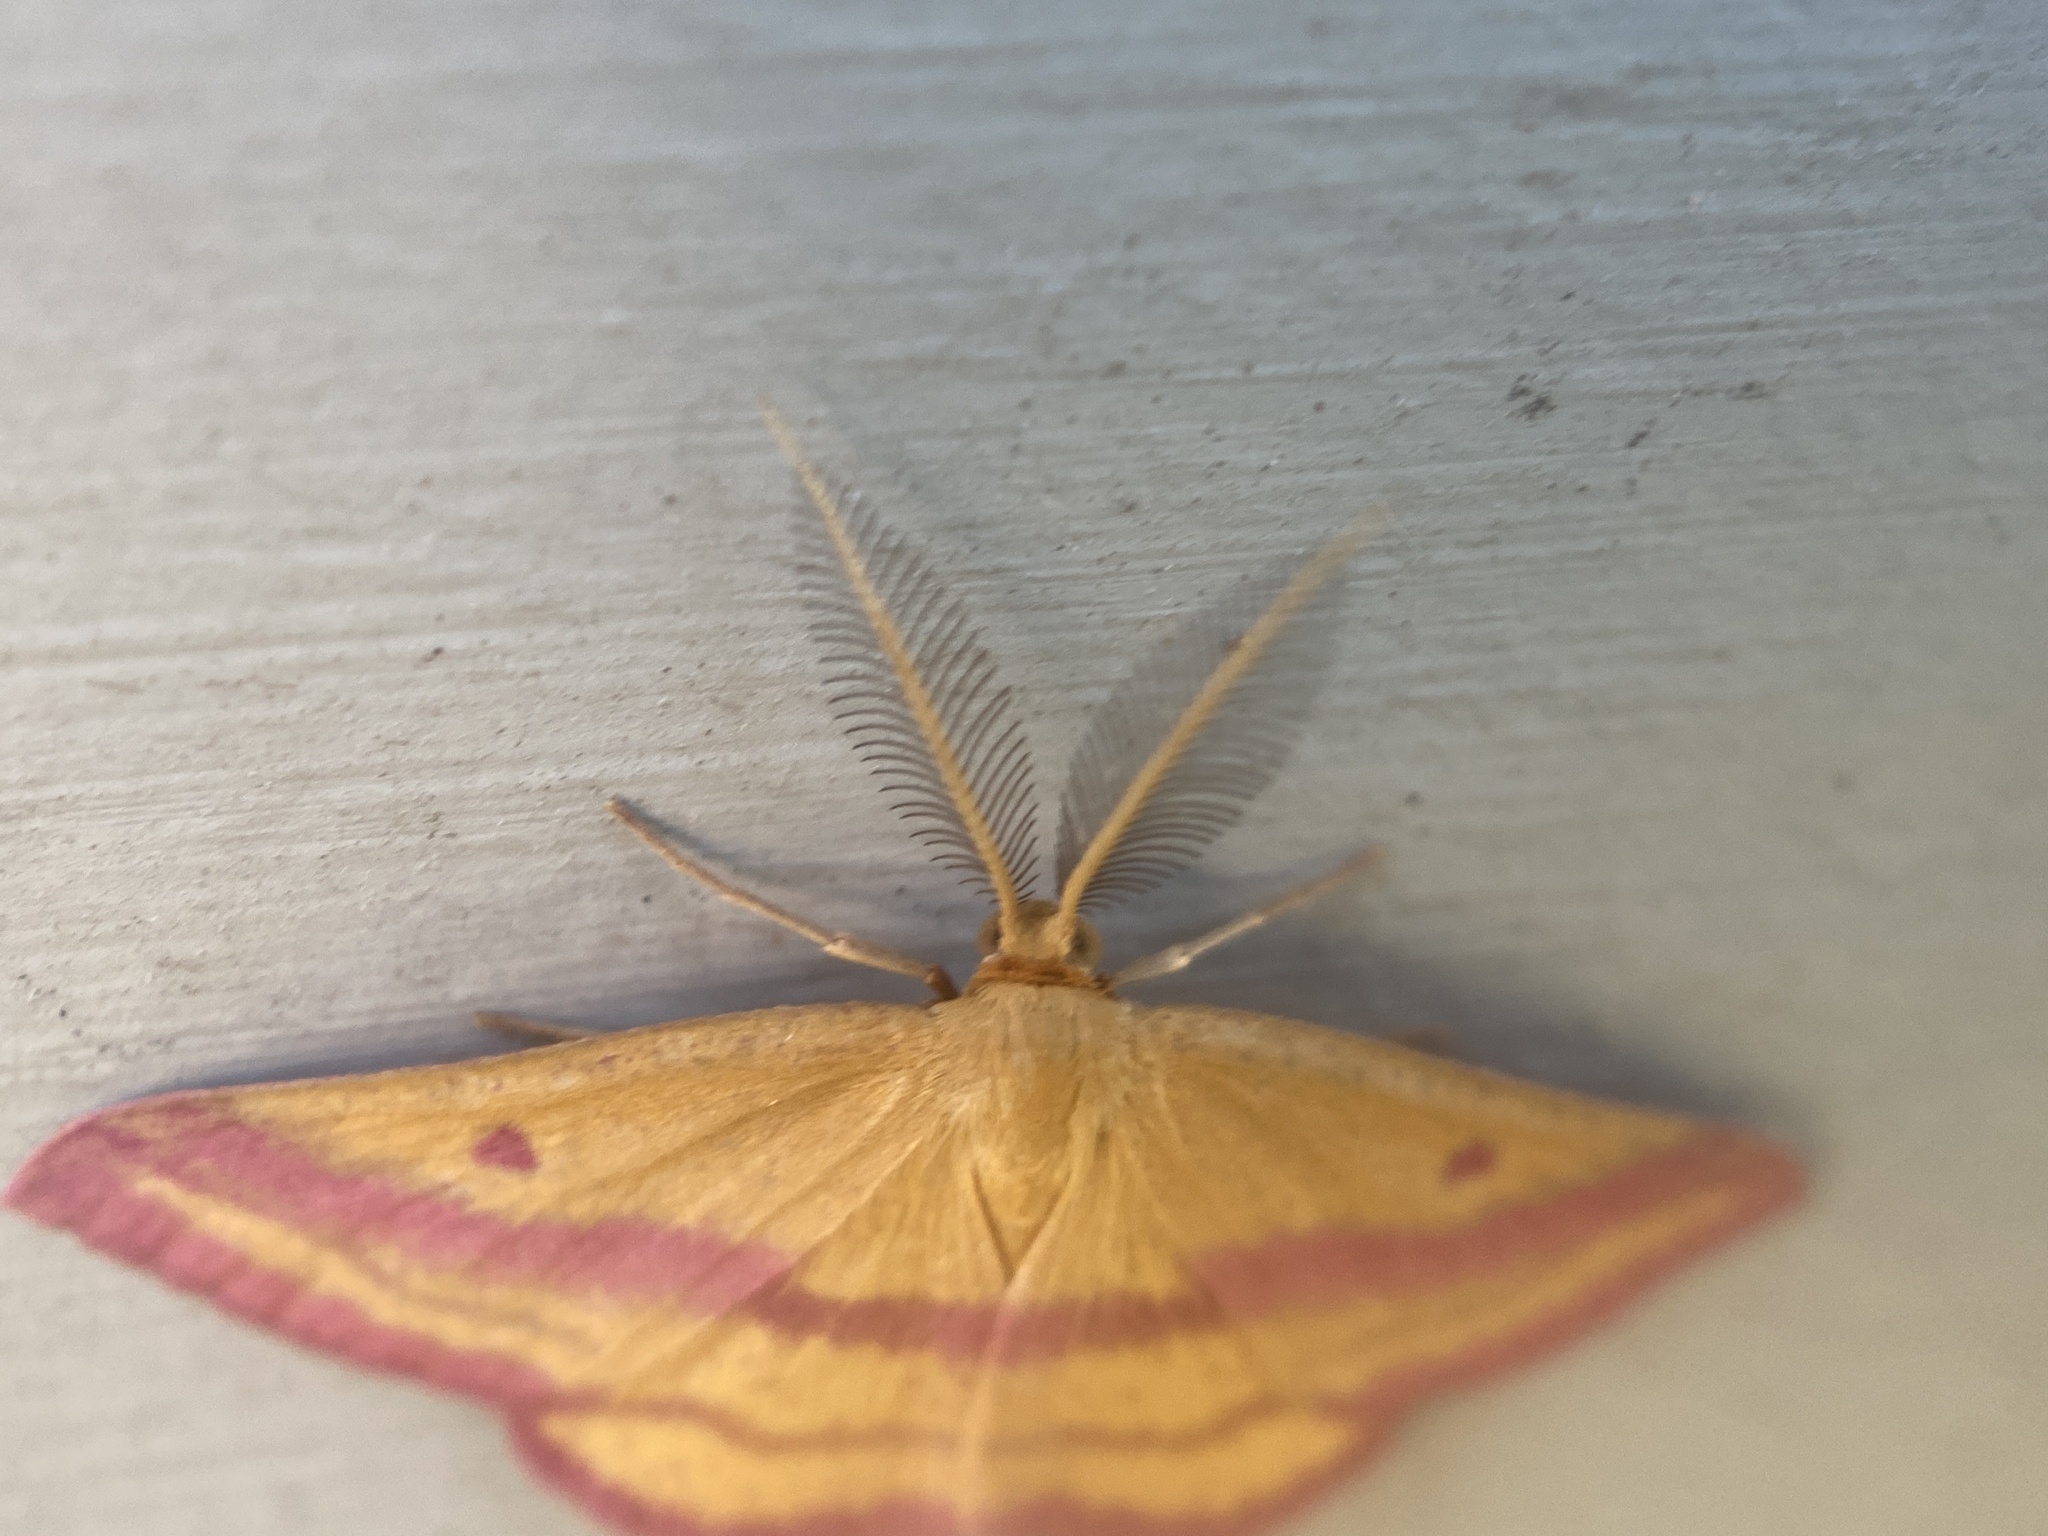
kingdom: Animalia
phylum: Arthropoda
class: Insecta
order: Lepidoptera
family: Geometridae
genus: Haematopis
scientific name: Haematopis grataria
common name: Chickweed geometer
